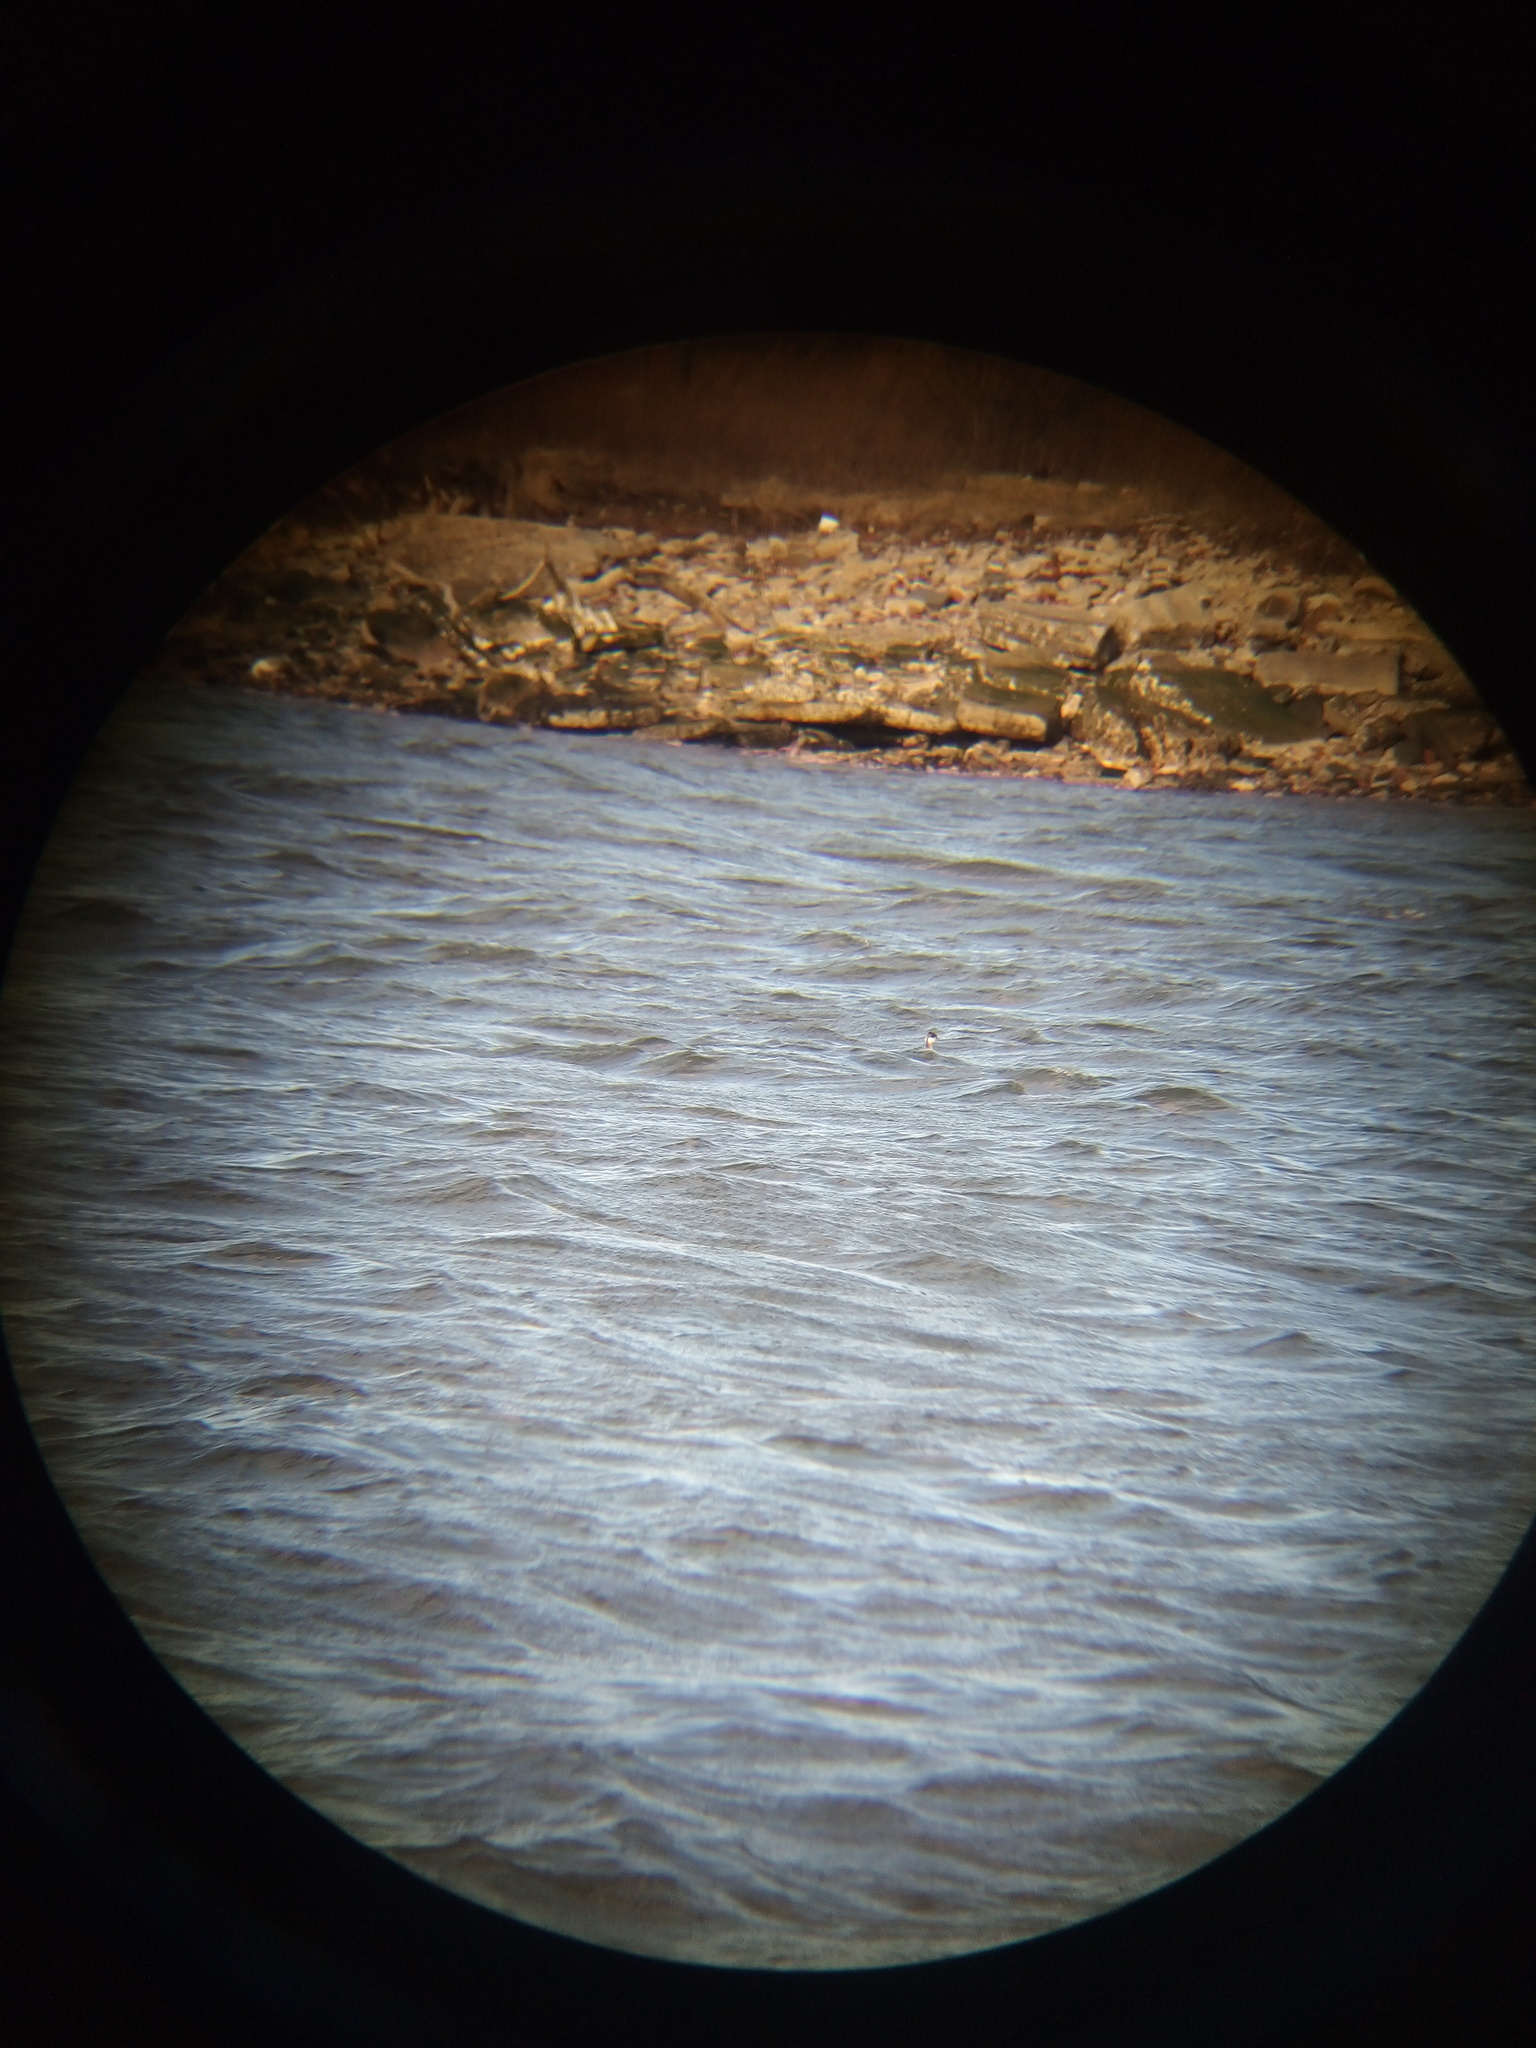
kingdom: Animalia
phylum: Chordata
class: Aves
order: Podicipediformes
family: Podicipedidae
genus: Podiceps
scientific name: Podiceps auritus
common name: Horned grebe
